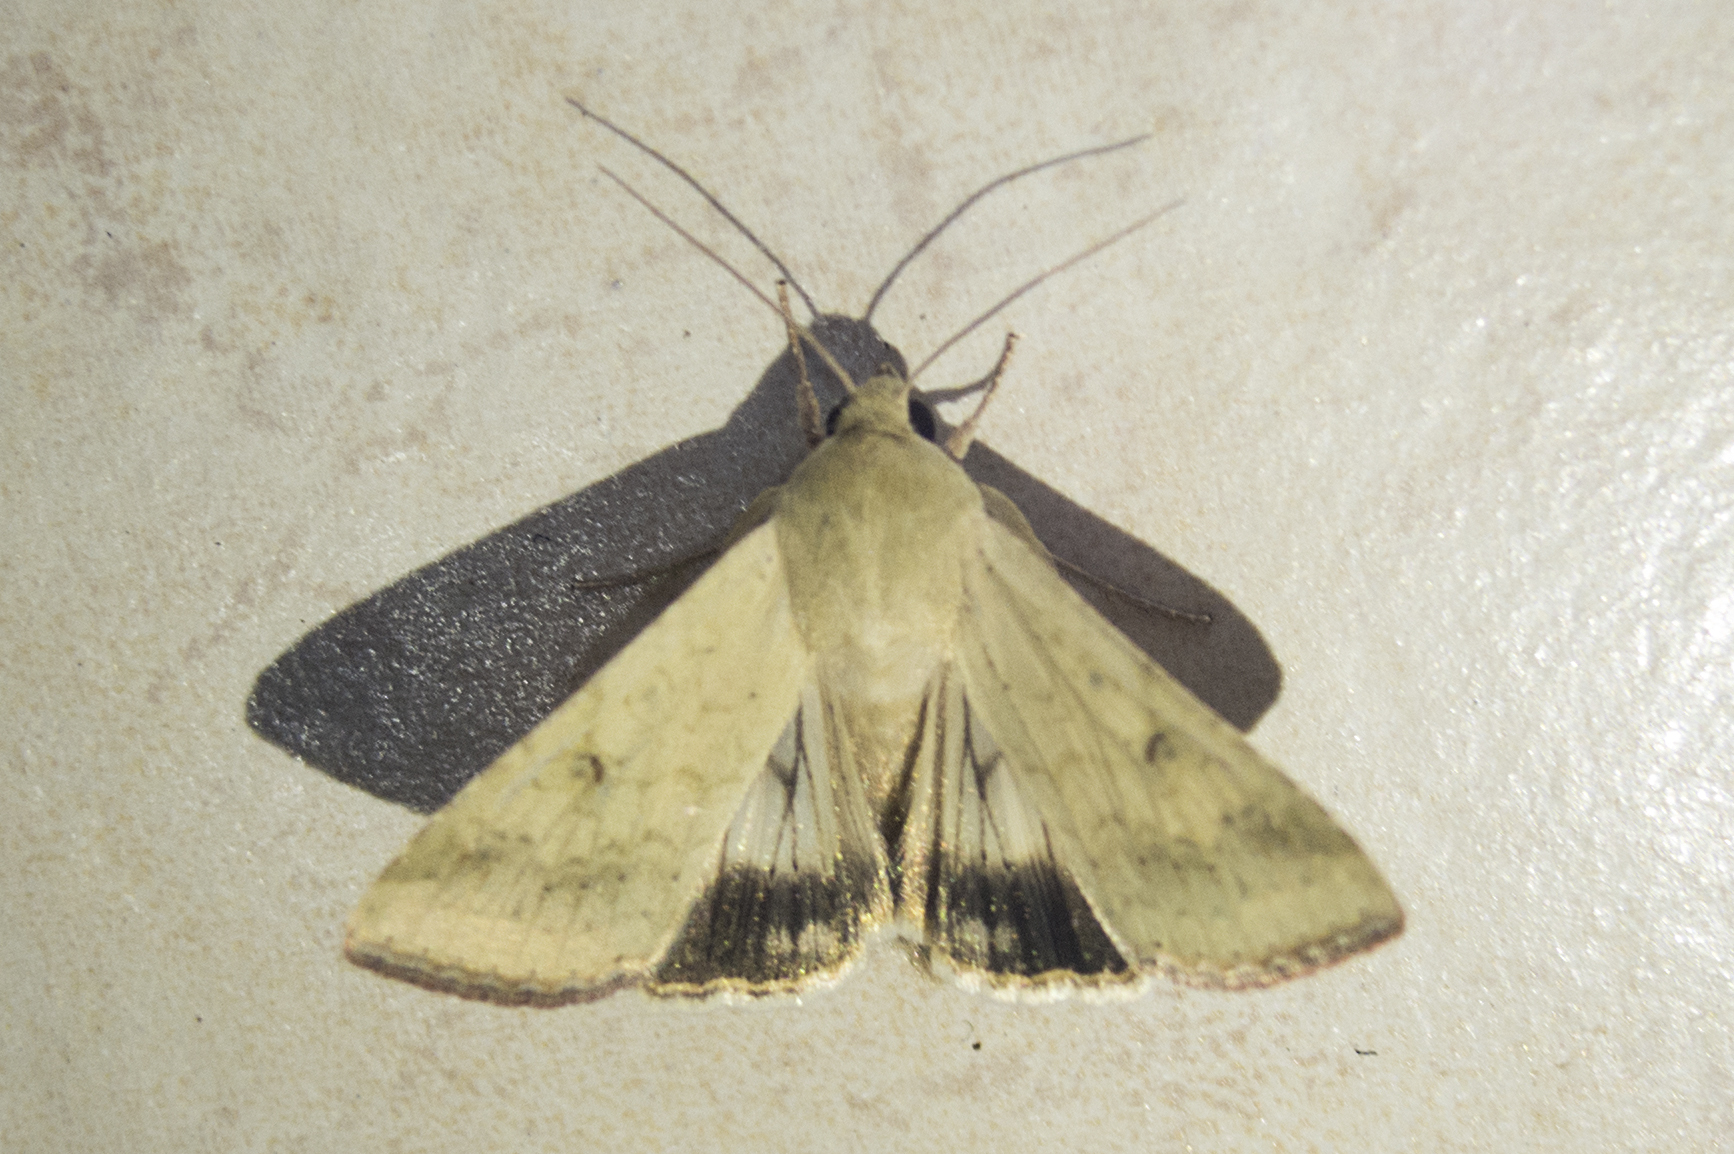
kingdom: Animalia
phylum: Arthropoda
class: Insecta
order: Lepidoptera
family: Noctuidae
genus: Helicoverpa
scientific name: Helicoverpa armigera
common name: Cotton bollworm
